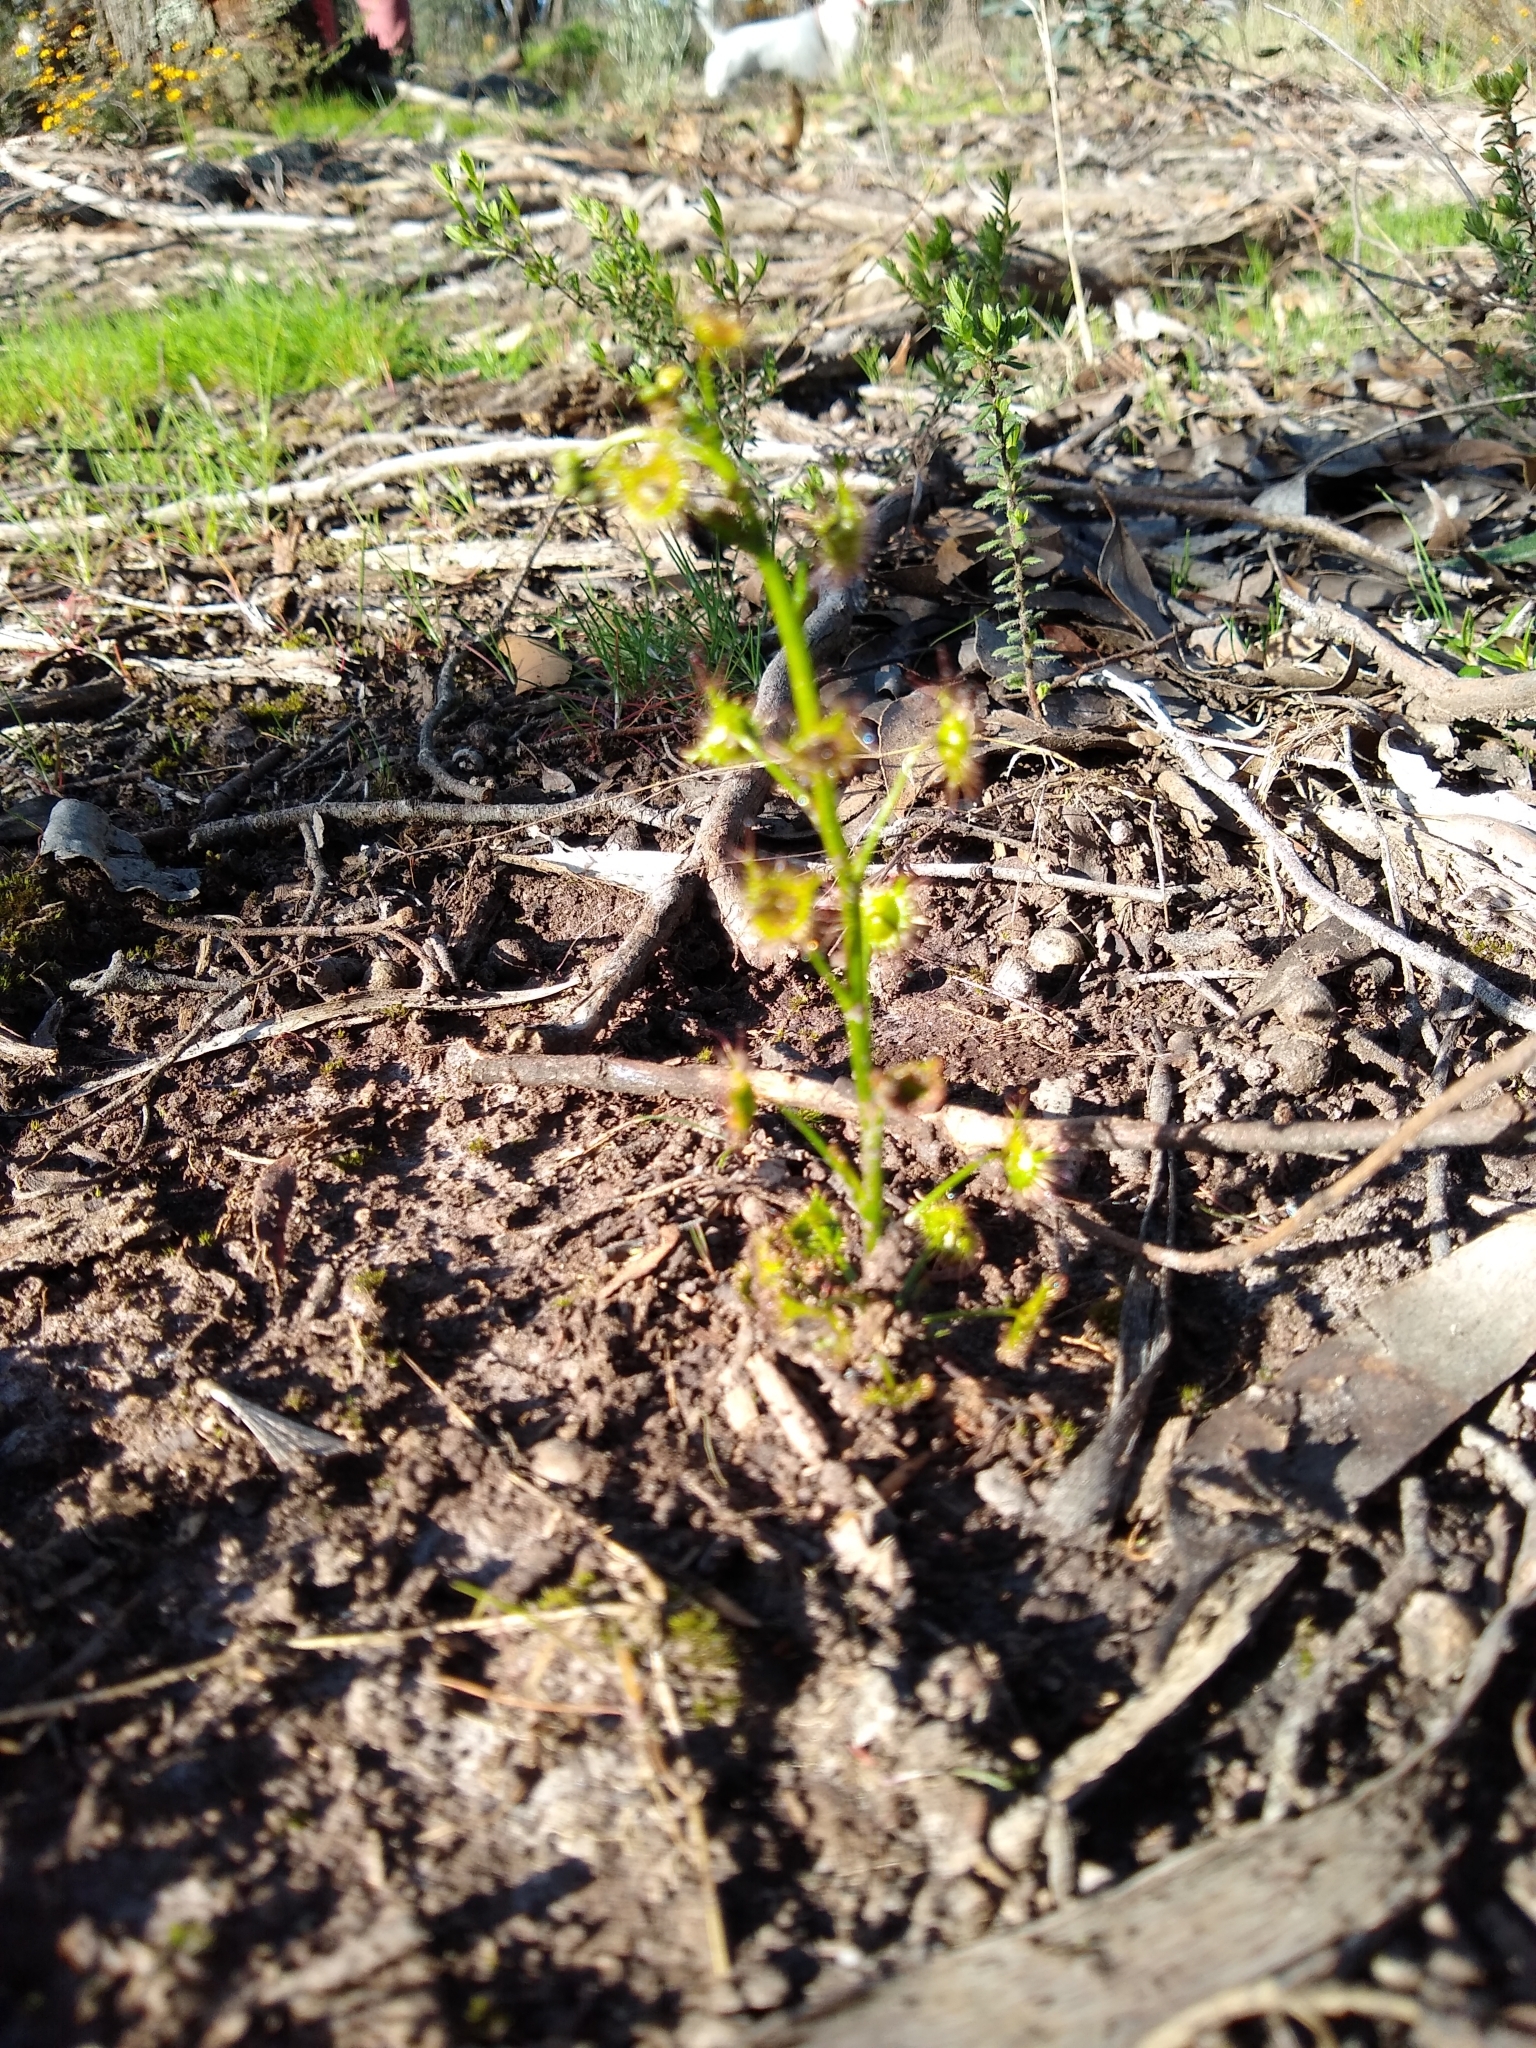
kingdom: Plantae
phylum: Tracheophyta
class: Magnoliopsida
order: Caryophyllales
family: Droseraceae
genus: Drosera
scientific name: Drosera peltata
